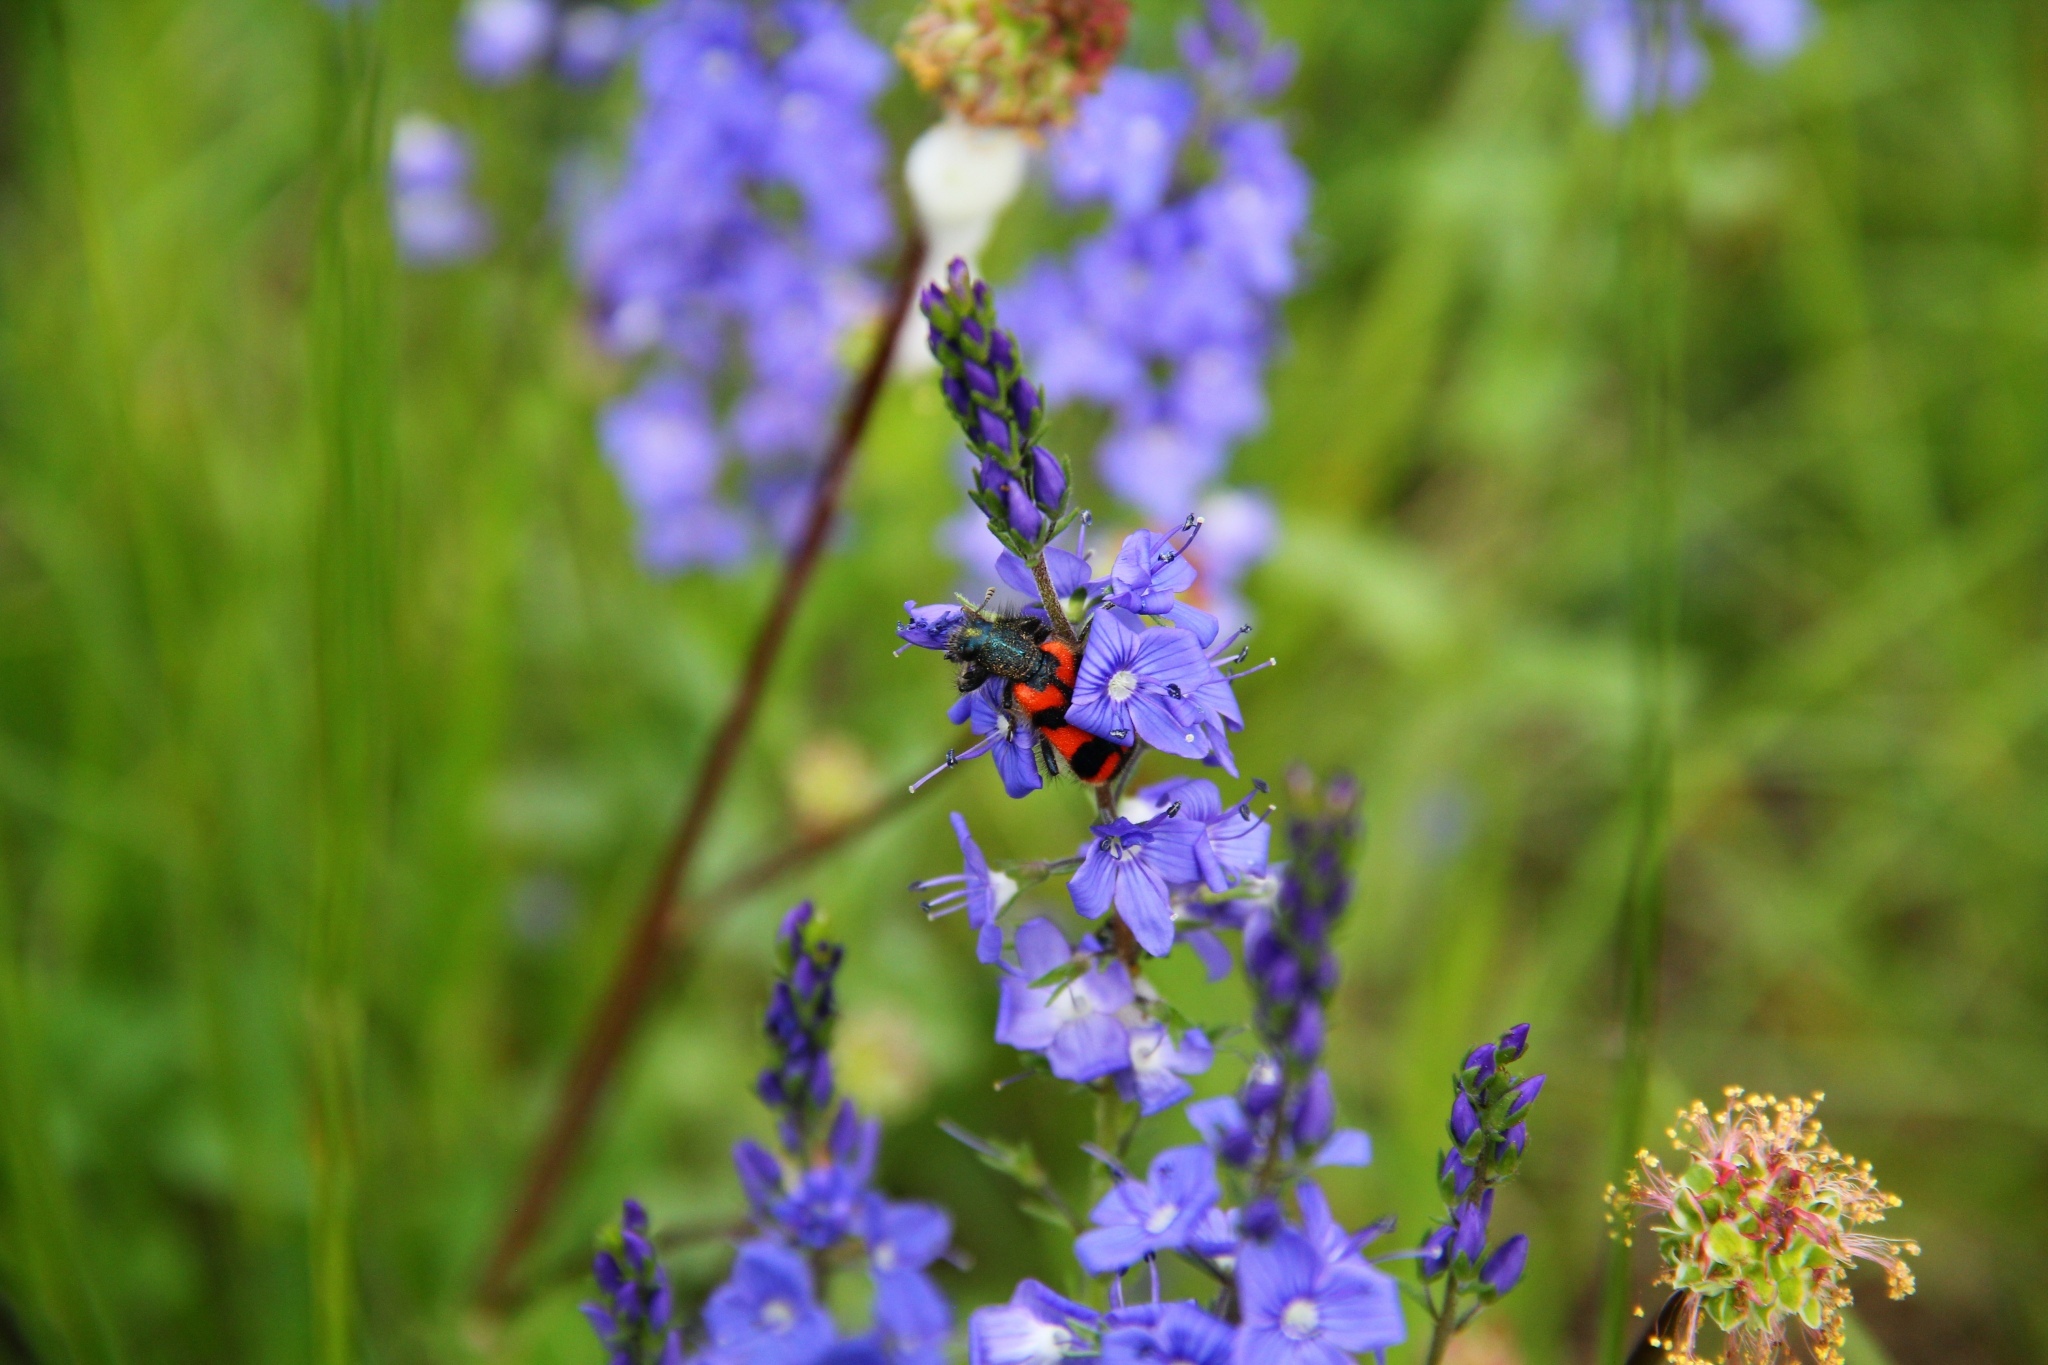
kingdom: Animalia
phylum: Arthropoda
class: Insecta
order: Coleoptera
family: Cleridae
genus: Trichodes
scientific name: Trichodes alvearius
